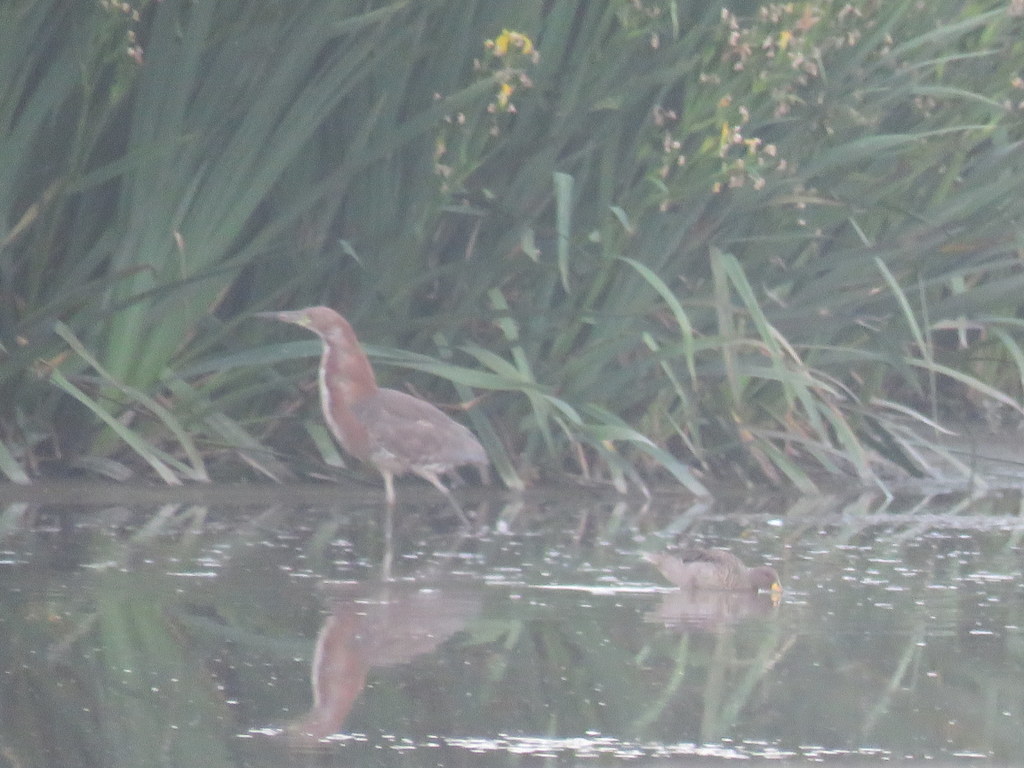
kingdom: Animalia
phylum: Chordata
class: Aves
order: Pelecaniformes
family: Ardeidae
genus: Tigrisoma
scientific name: Tigrisoma lineatum
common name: Rufescent tiger-heron
